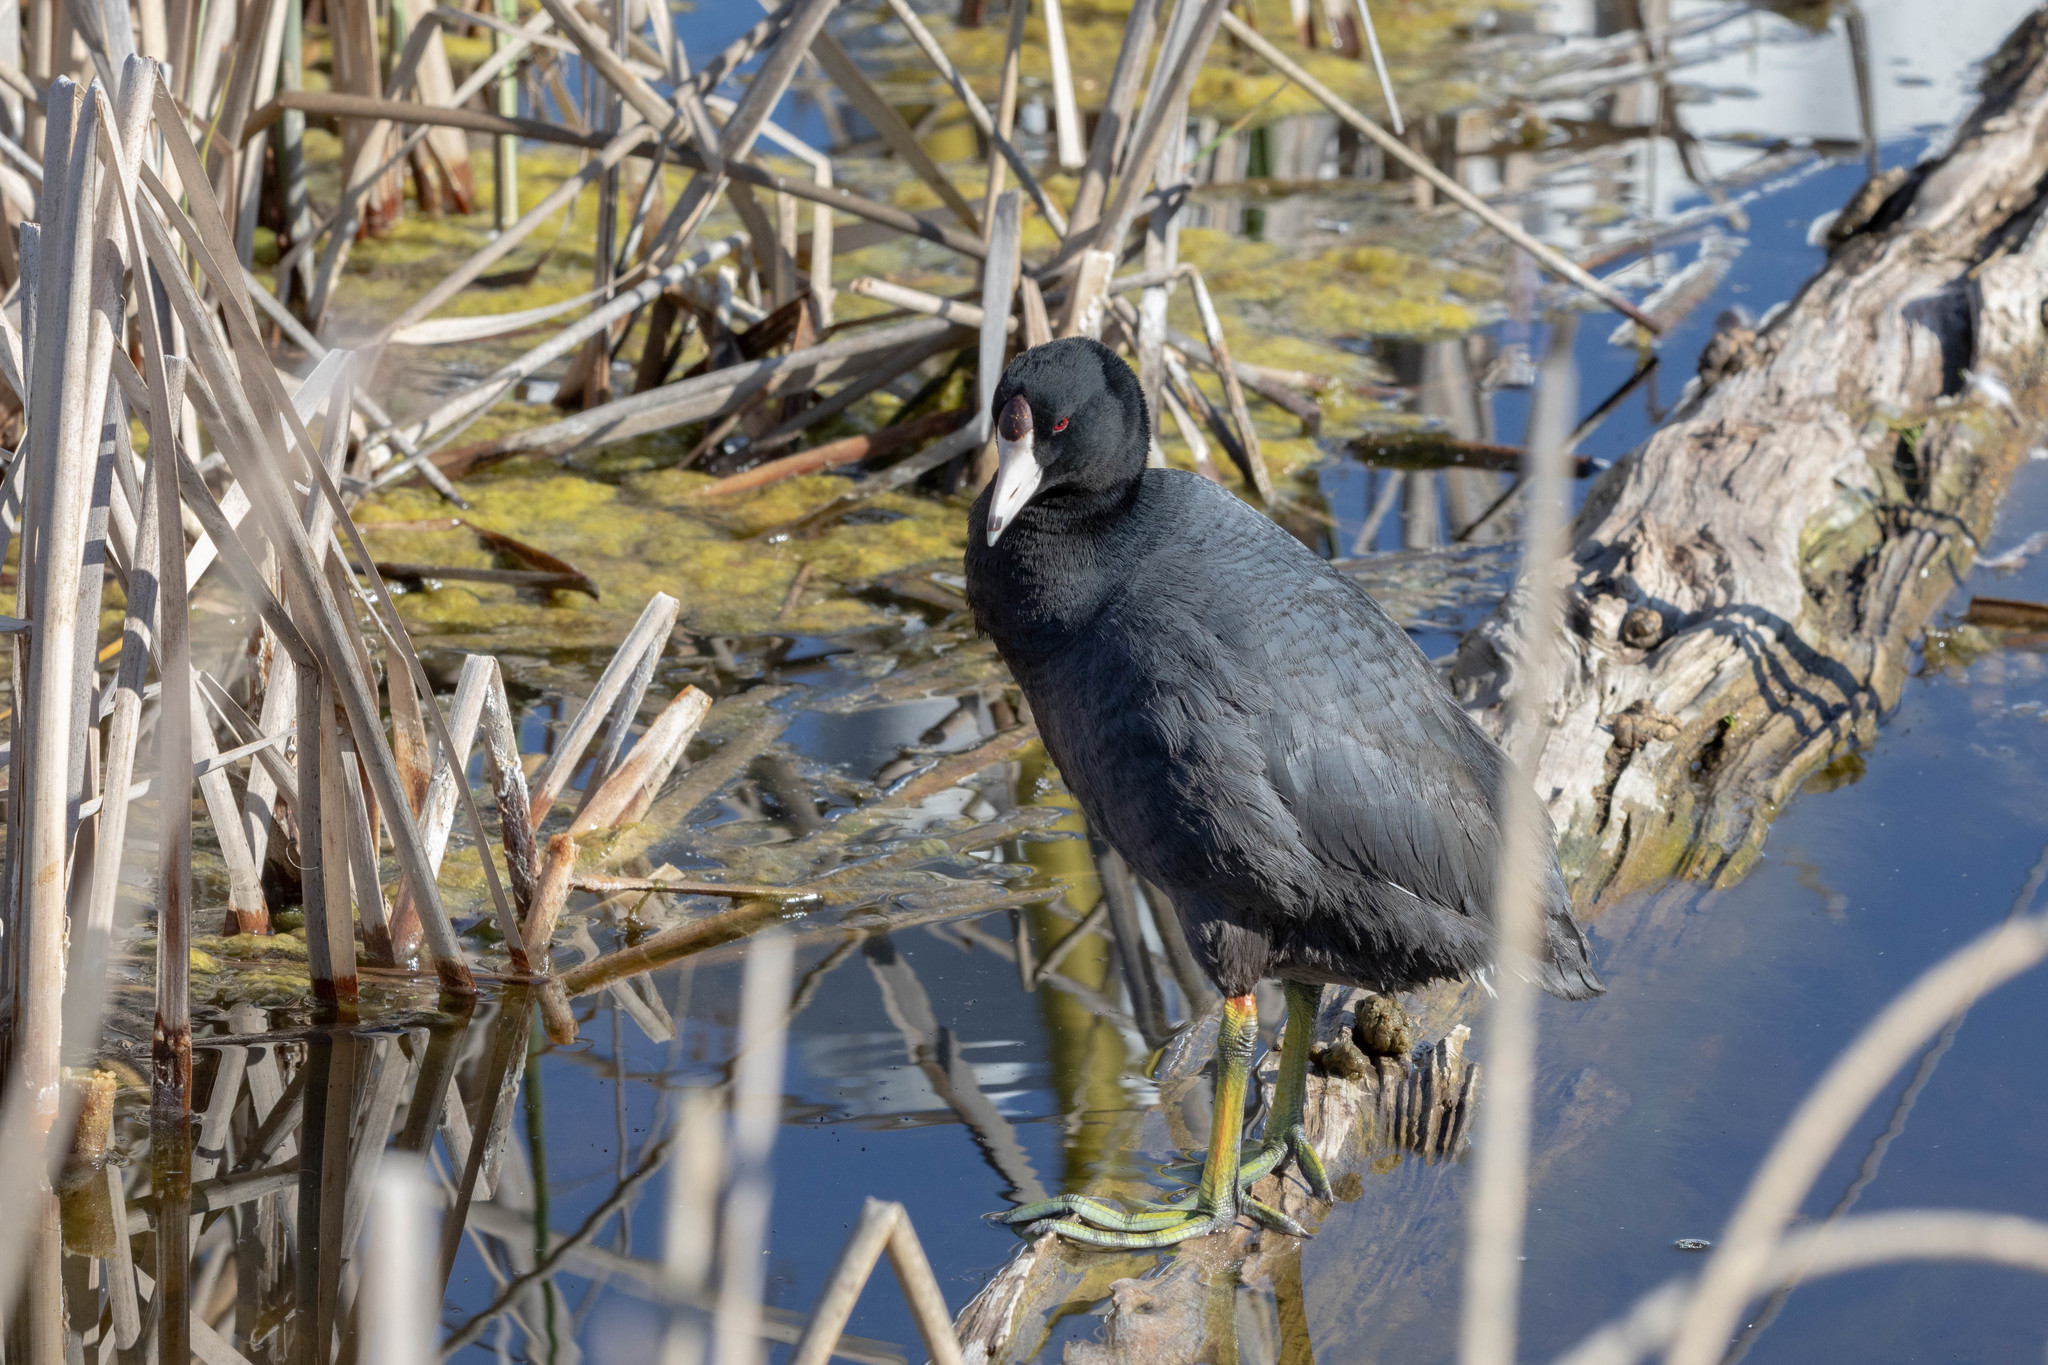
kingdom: Animalia
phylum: Chordata
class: Aves
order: Gruiformes
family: Rallidae
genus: Fulica
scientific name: Fulica americana
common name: American coot
